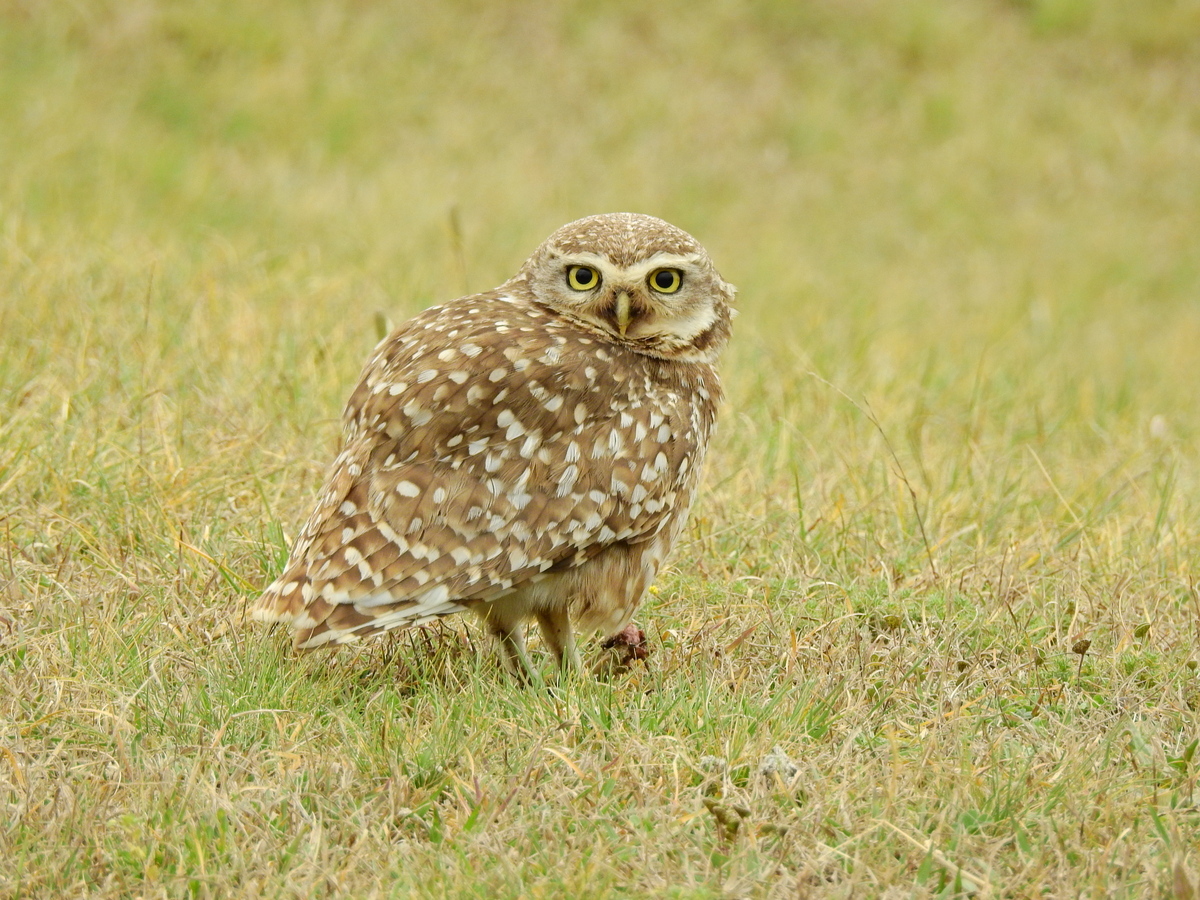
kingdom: Animalia
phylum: Chordata
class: Aves
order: Strigiformes
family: Strigidae
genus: Athene
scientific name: Athene cunicularia
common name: Burrowing owl
